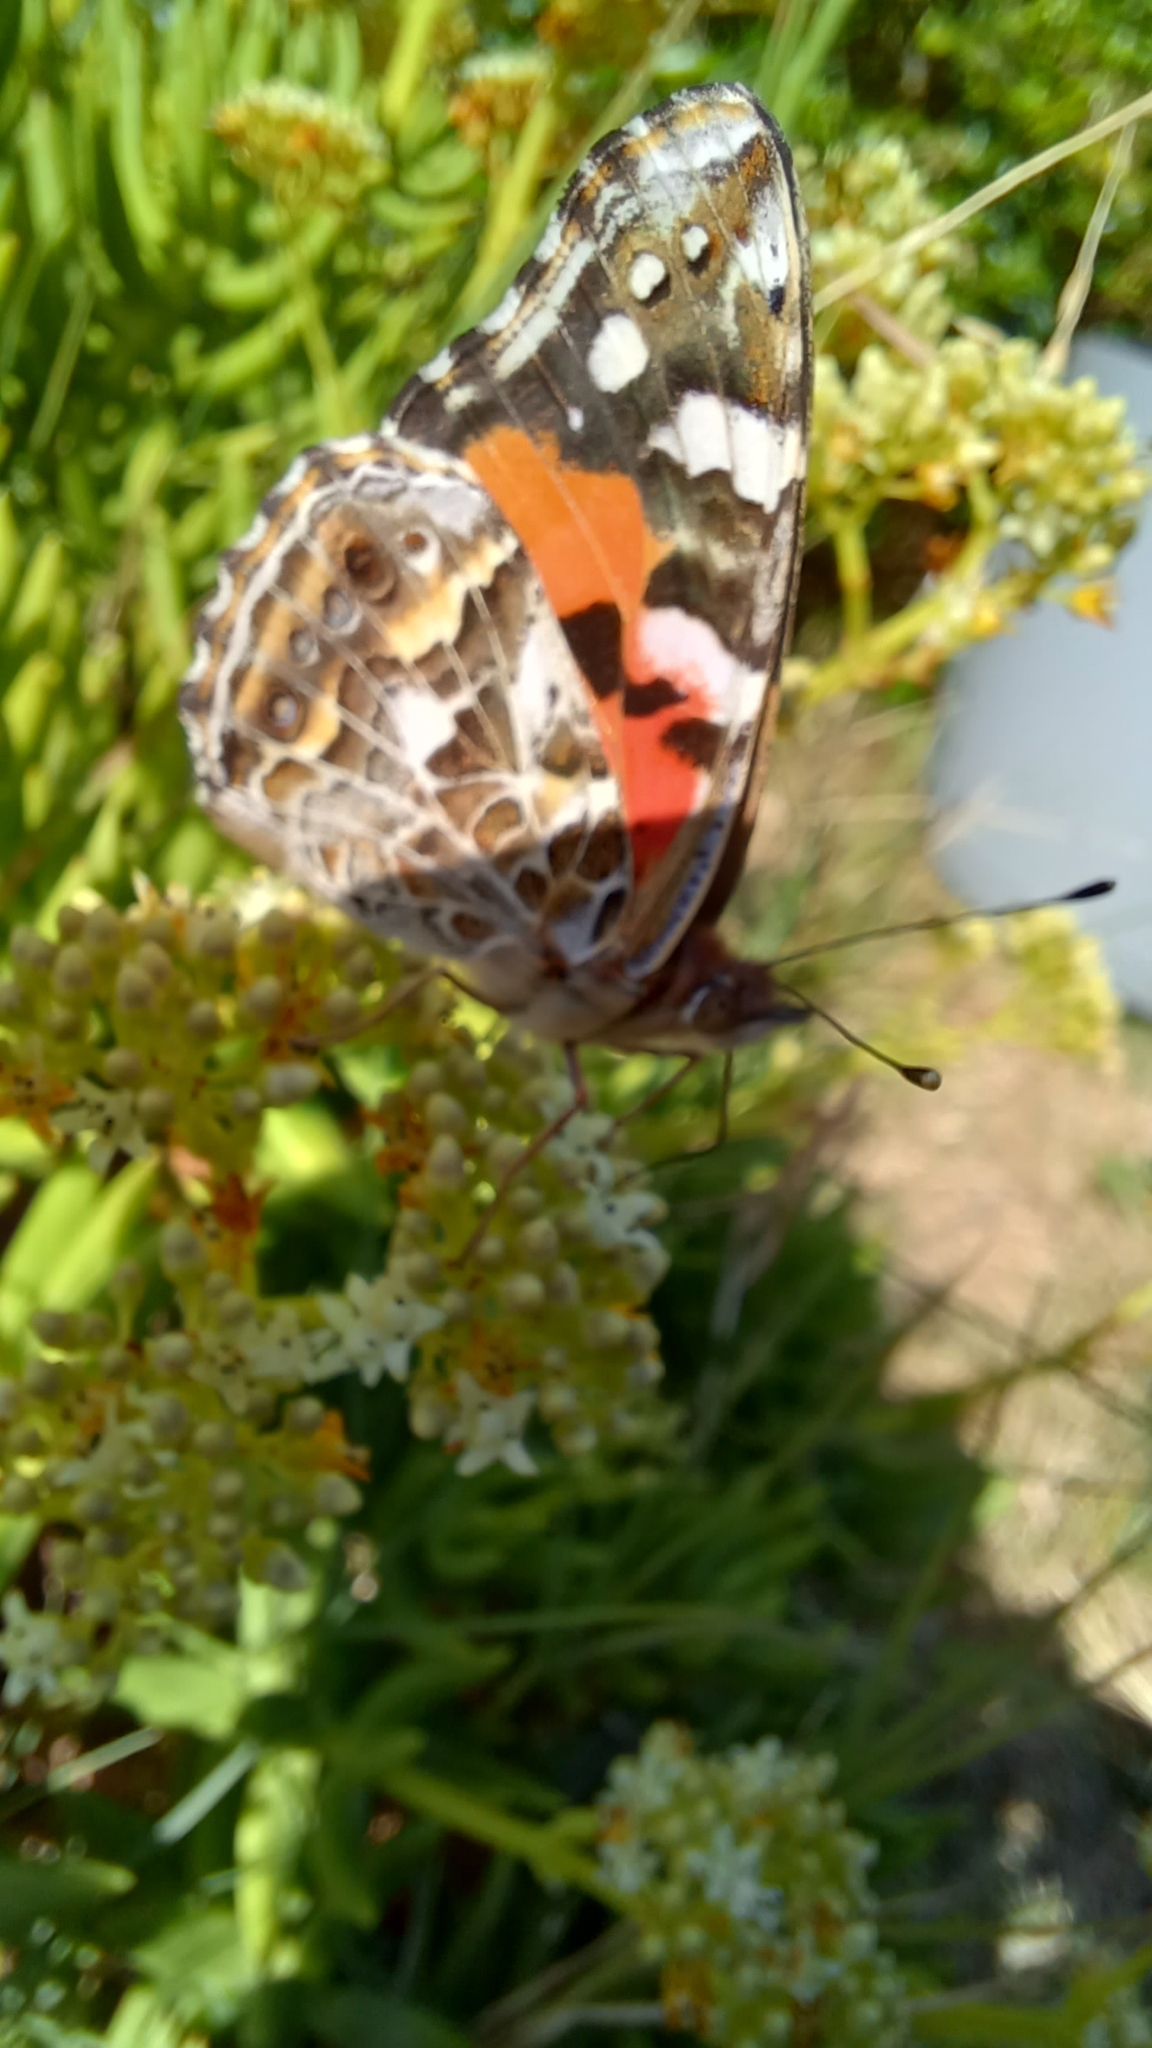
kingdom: Animalia
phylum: Arthropoda
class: Insecta
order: Lepidoptera
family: Nymphalidae
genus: Vanessa
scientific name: Vanessa kershawi
